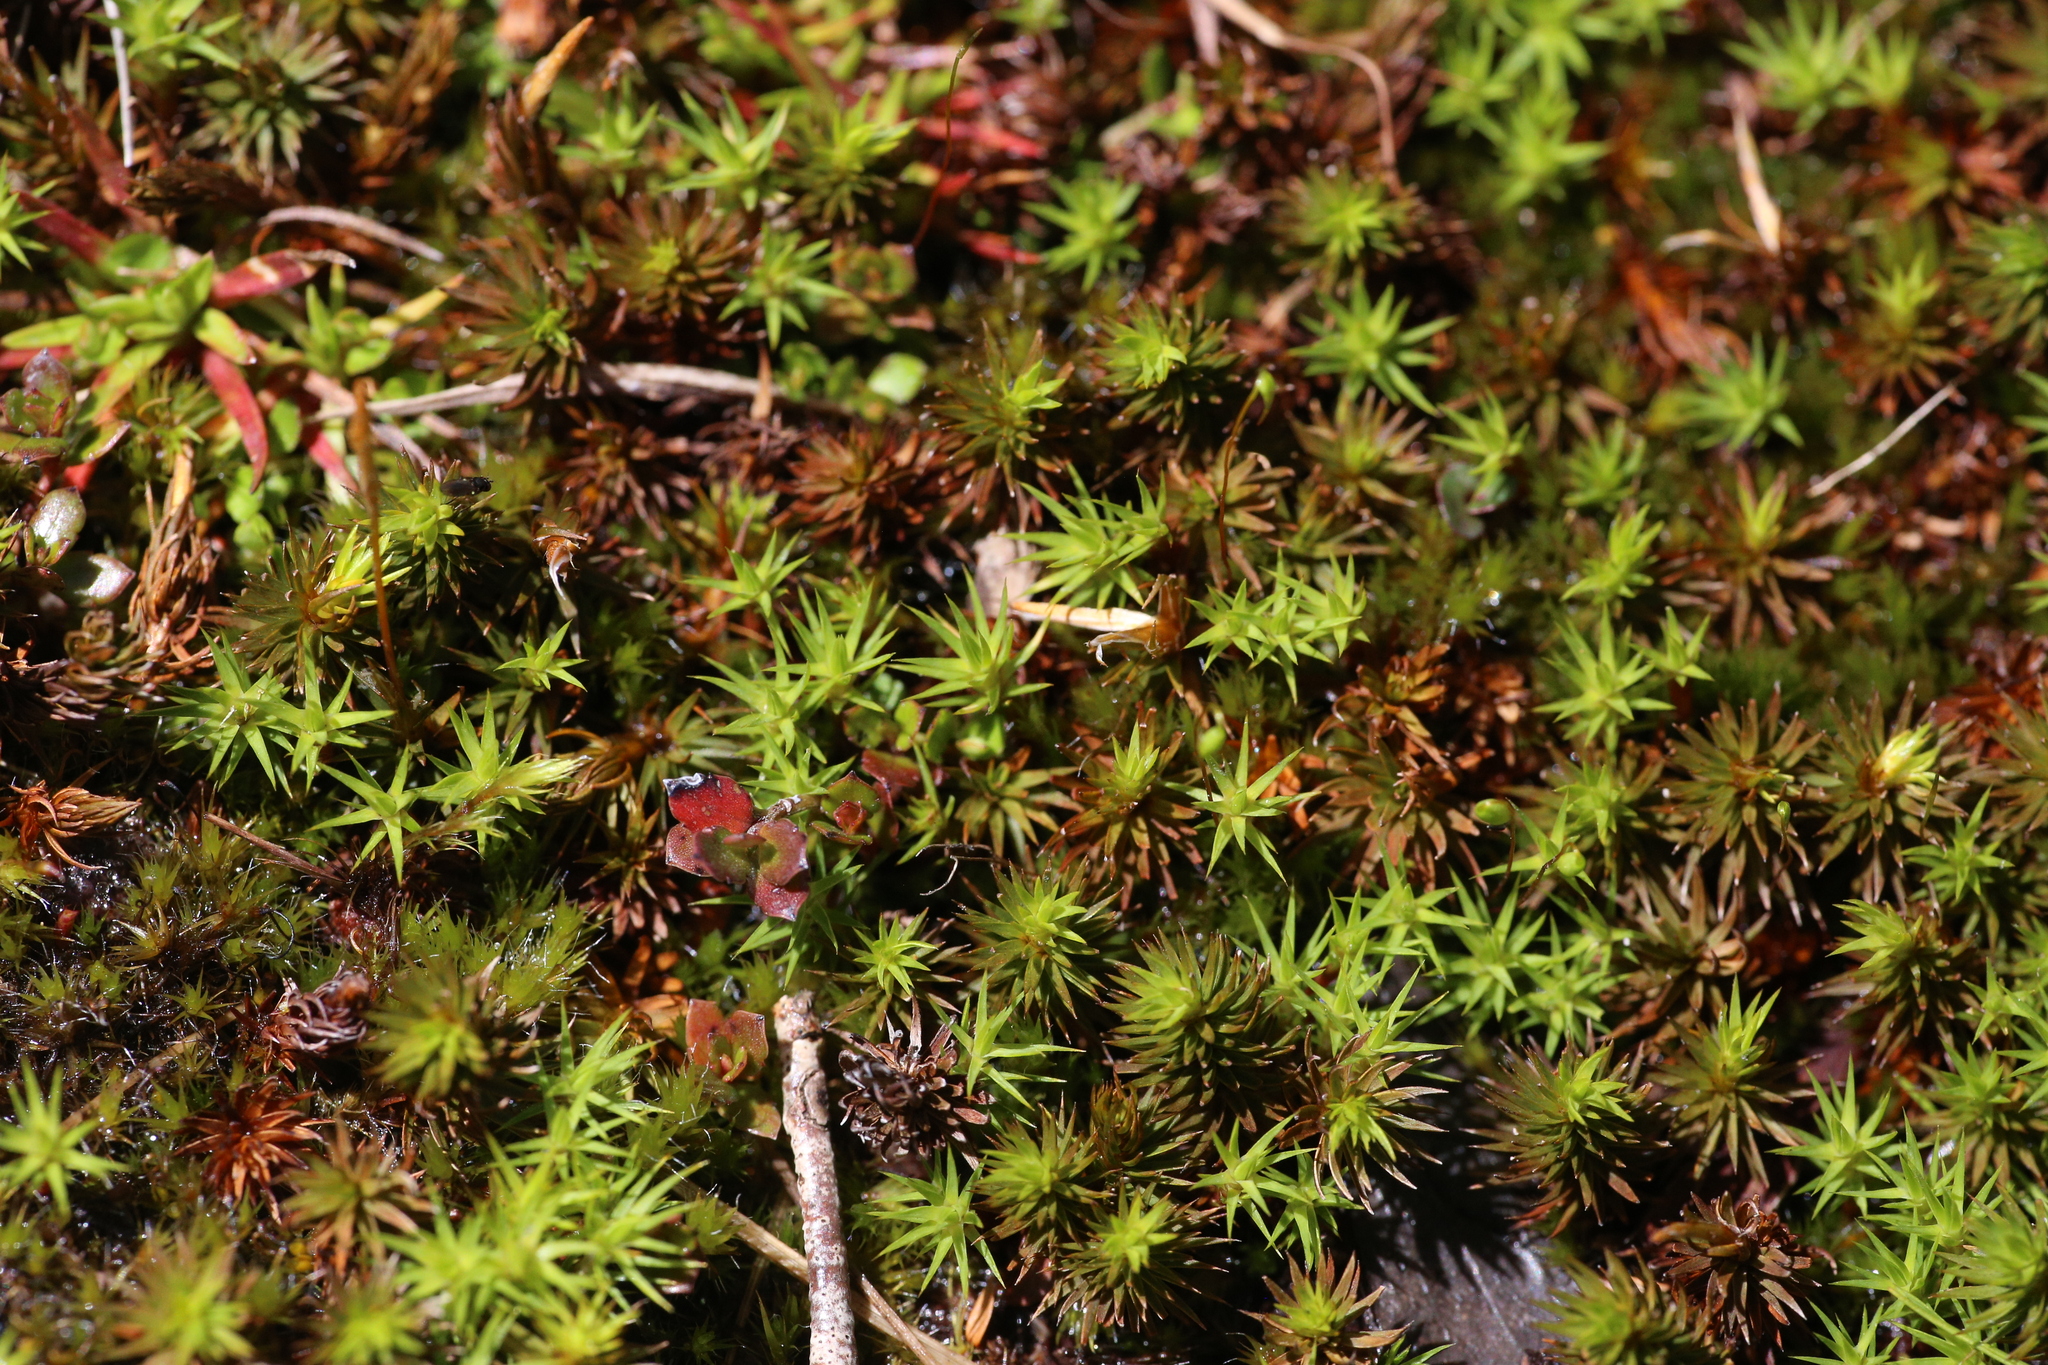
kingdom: Plantae
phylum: Bryophyta
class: Polytrichopsida
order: Polytrichales
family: Polytrichaceae
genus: Polytrichum
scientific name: Polytrichum juniperinum
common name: Juniper haircap moss
